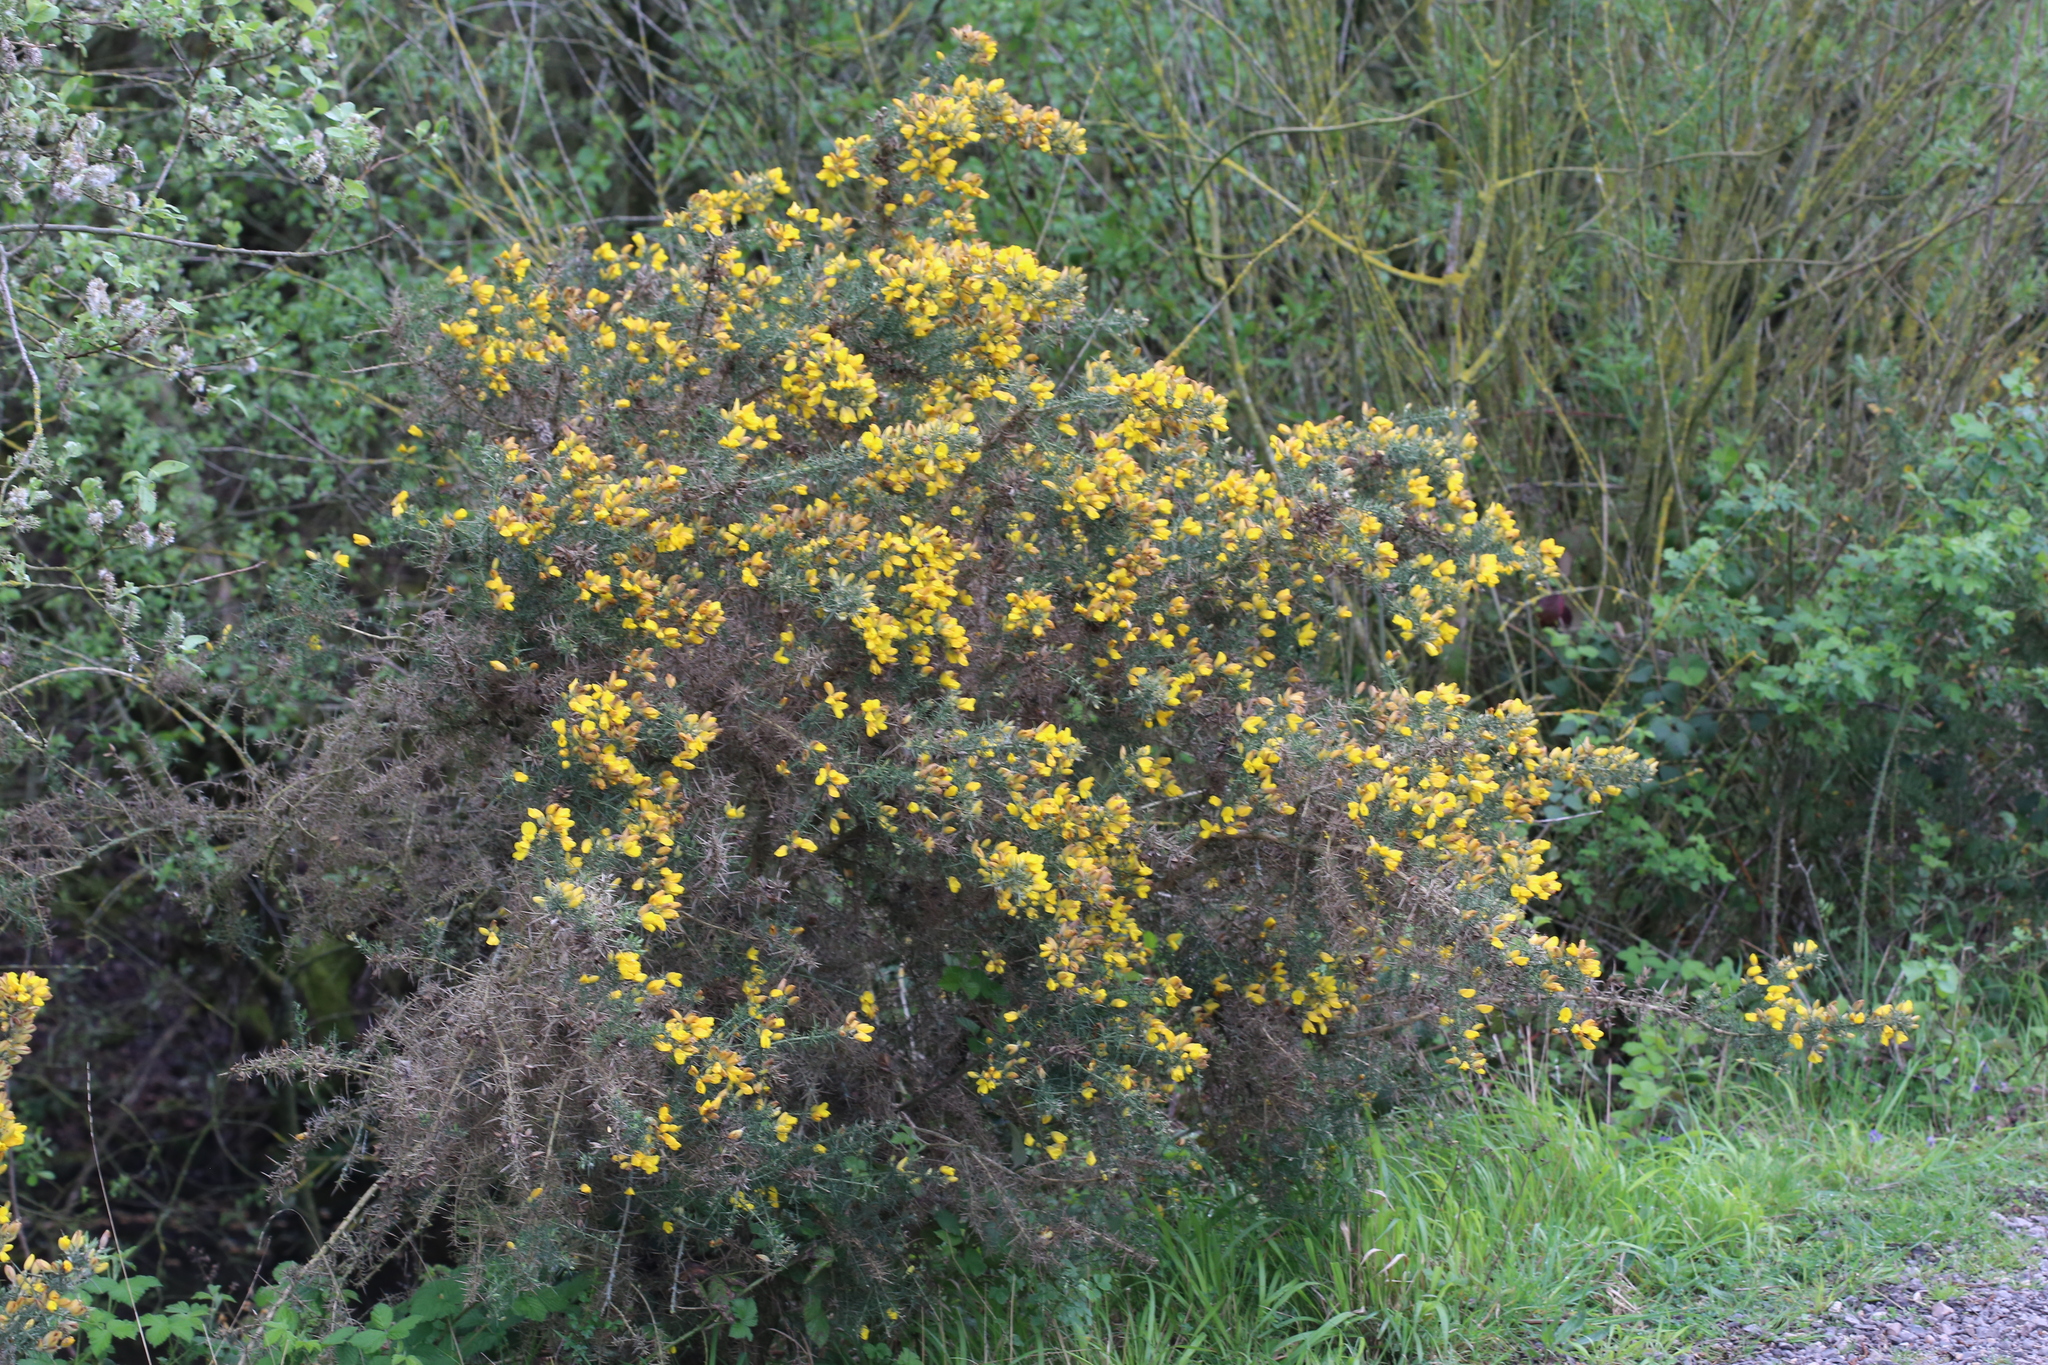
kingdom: Plantae
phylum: Tracheophyta
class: Magnoliopsida
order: Fabales
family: Fabaceae
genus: Ulex
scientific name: Ulex europaeus
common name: Common gorse
